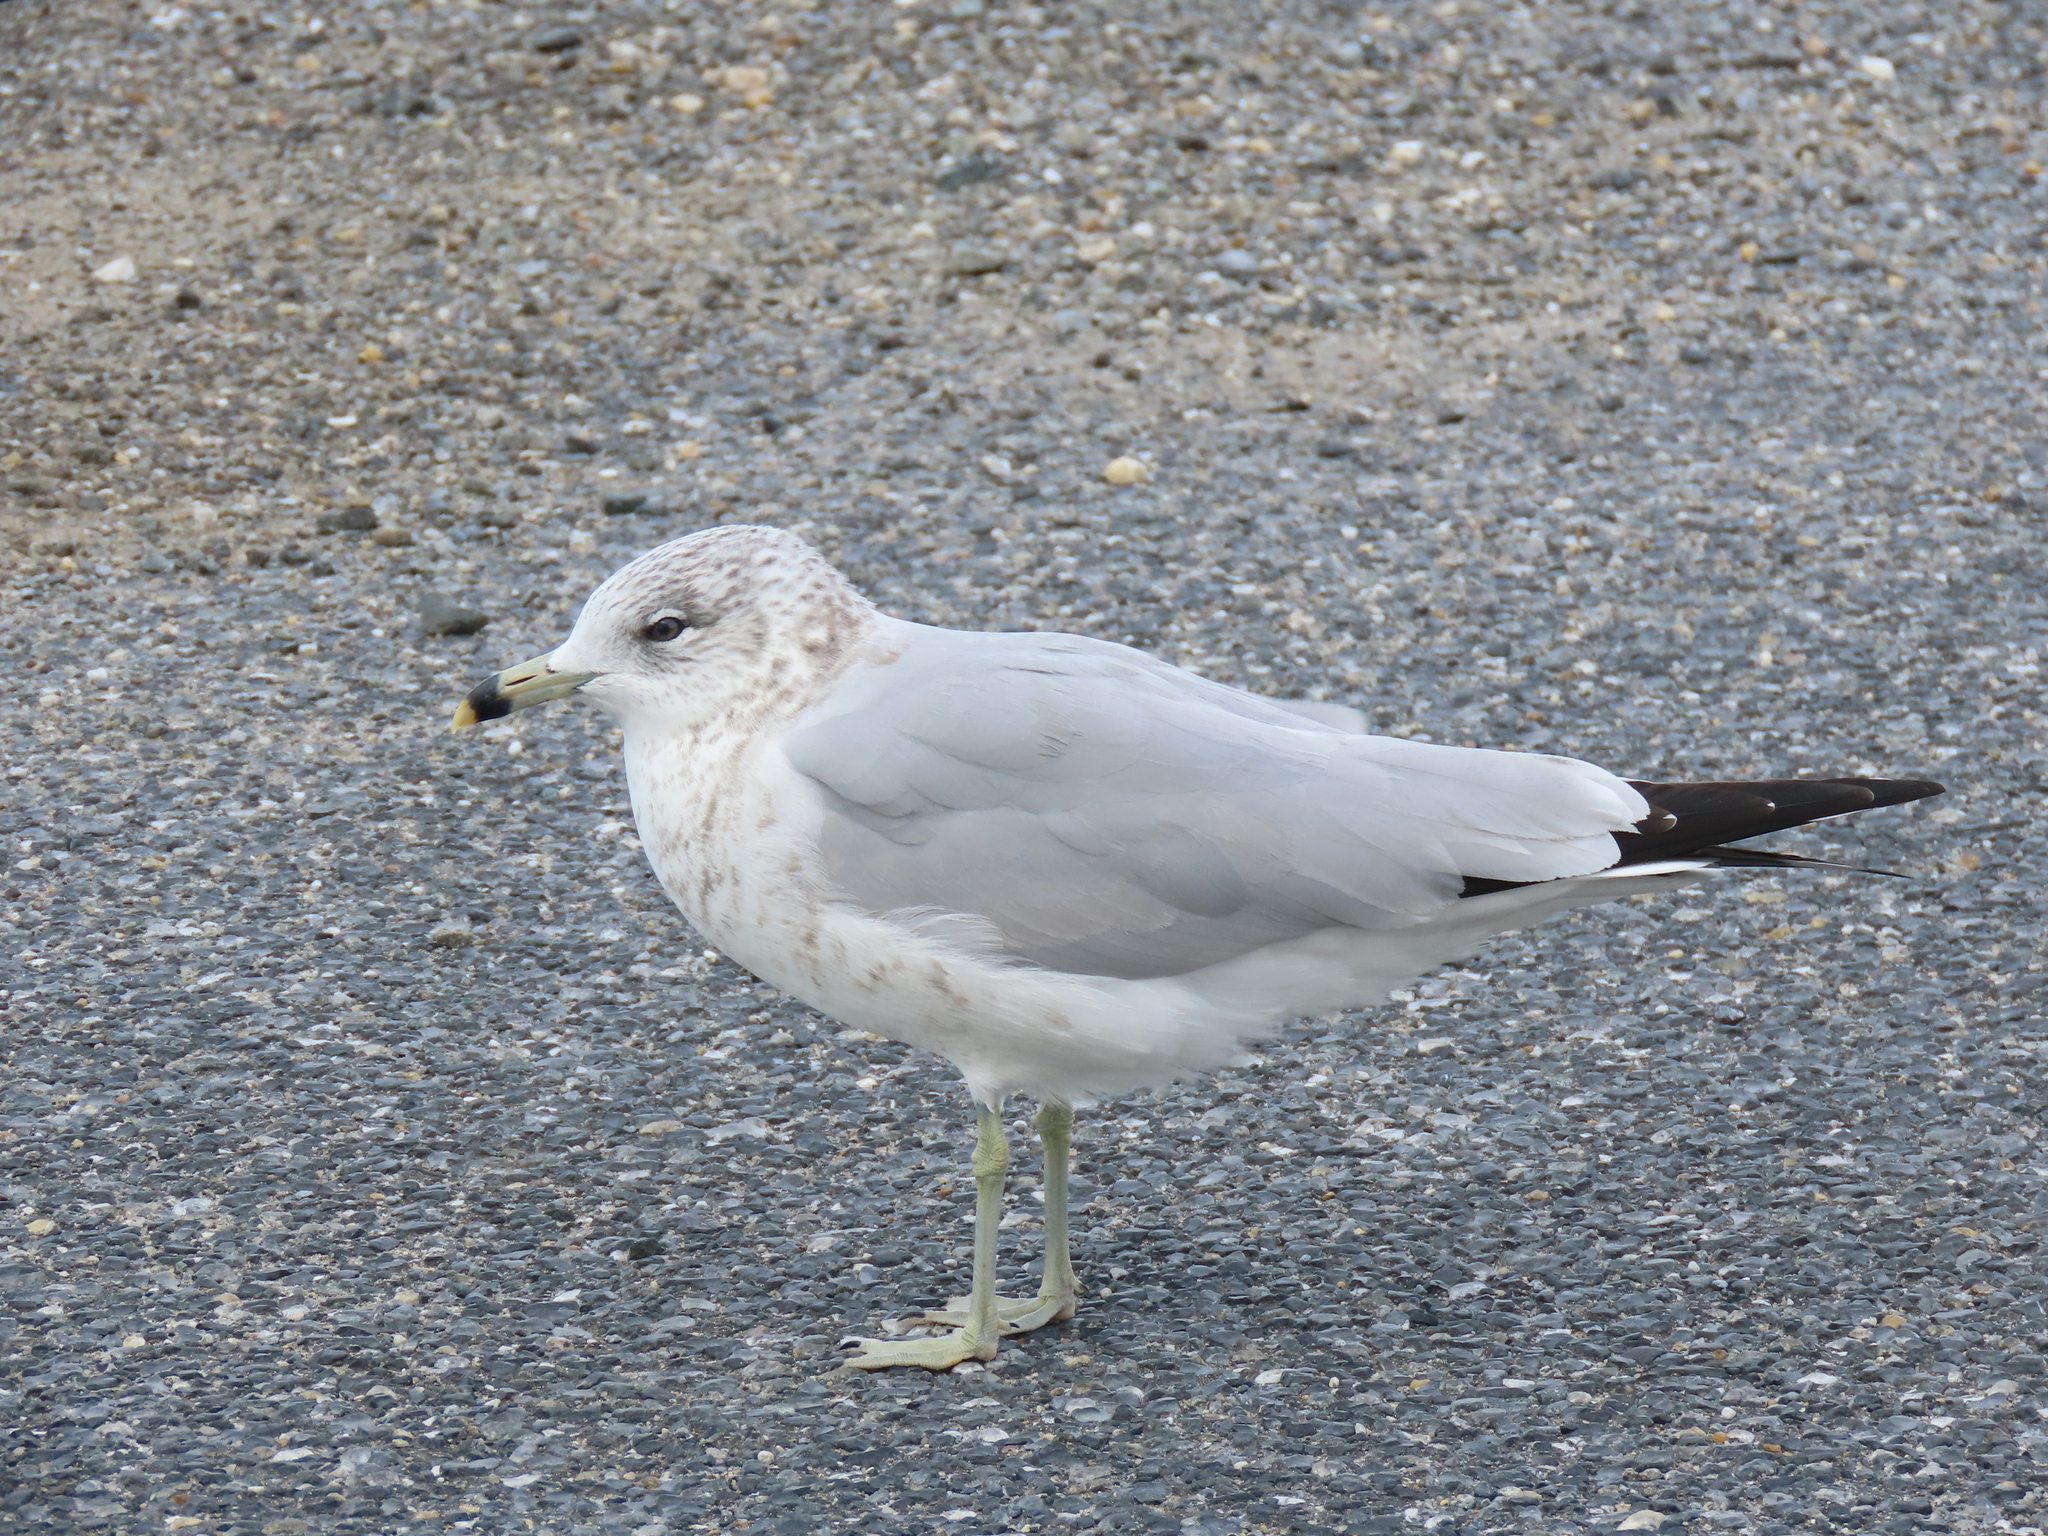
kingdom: Animalia
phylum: Chordata
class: Aves
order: Charadriiformes
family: Laridae
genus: Larus
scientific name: Larus delawarensis
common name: Ring-billed gull
